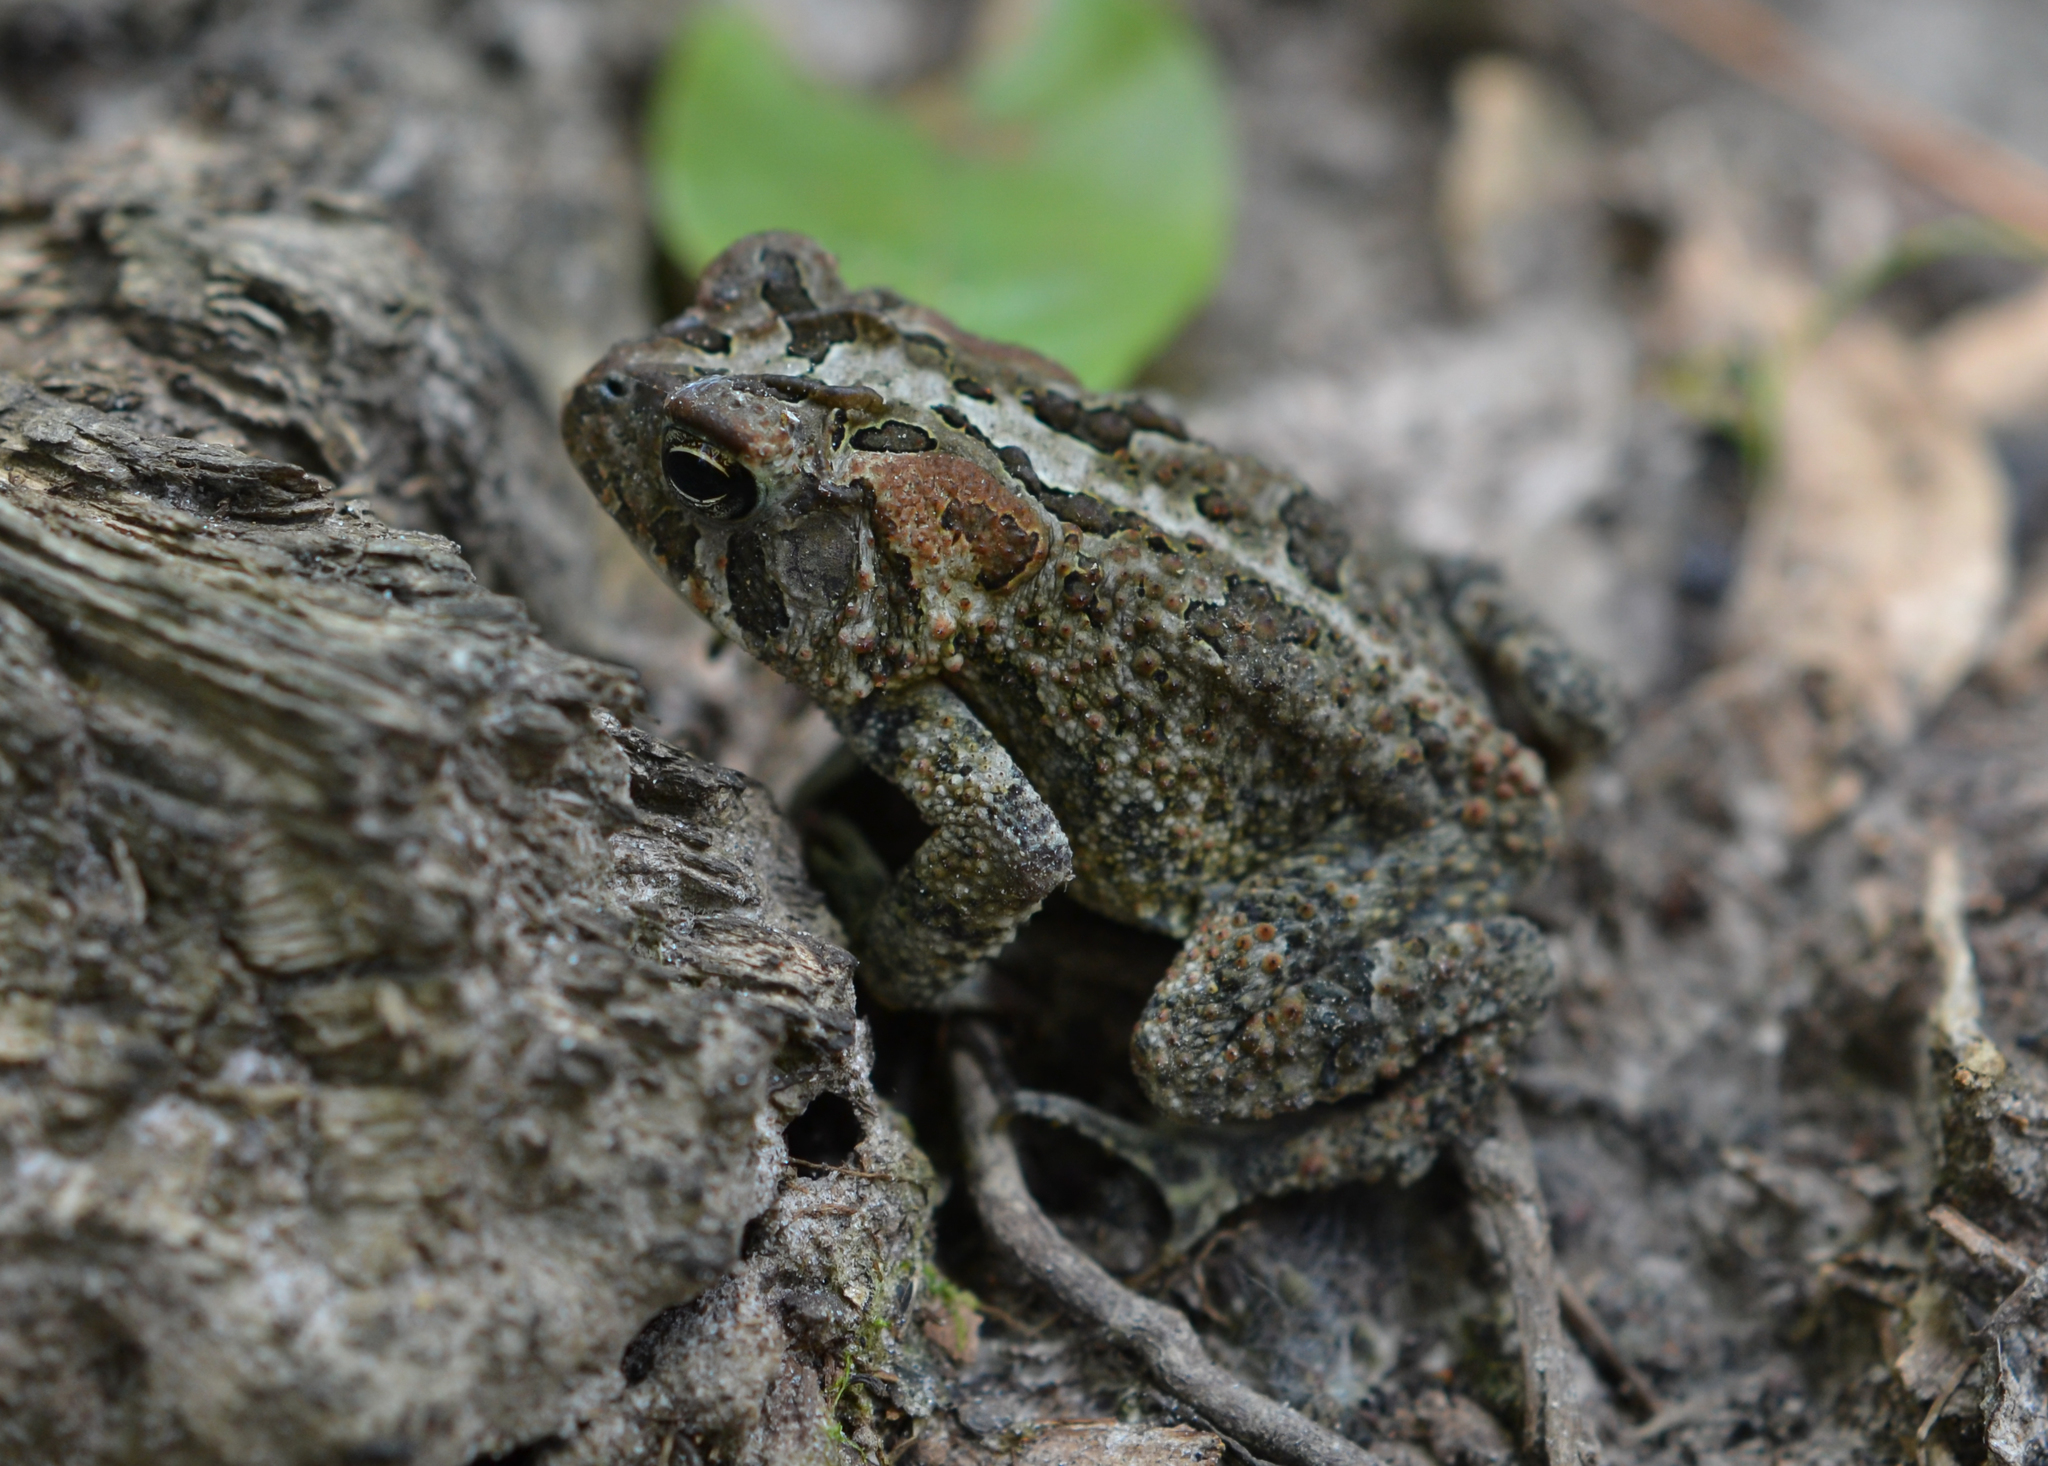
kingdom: Animalia
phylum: Chordata
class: Amphibia
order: Anura
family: Bufonidae
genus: Anaxyrus
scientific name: Anaxyrus terrestris
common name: Southern toad
